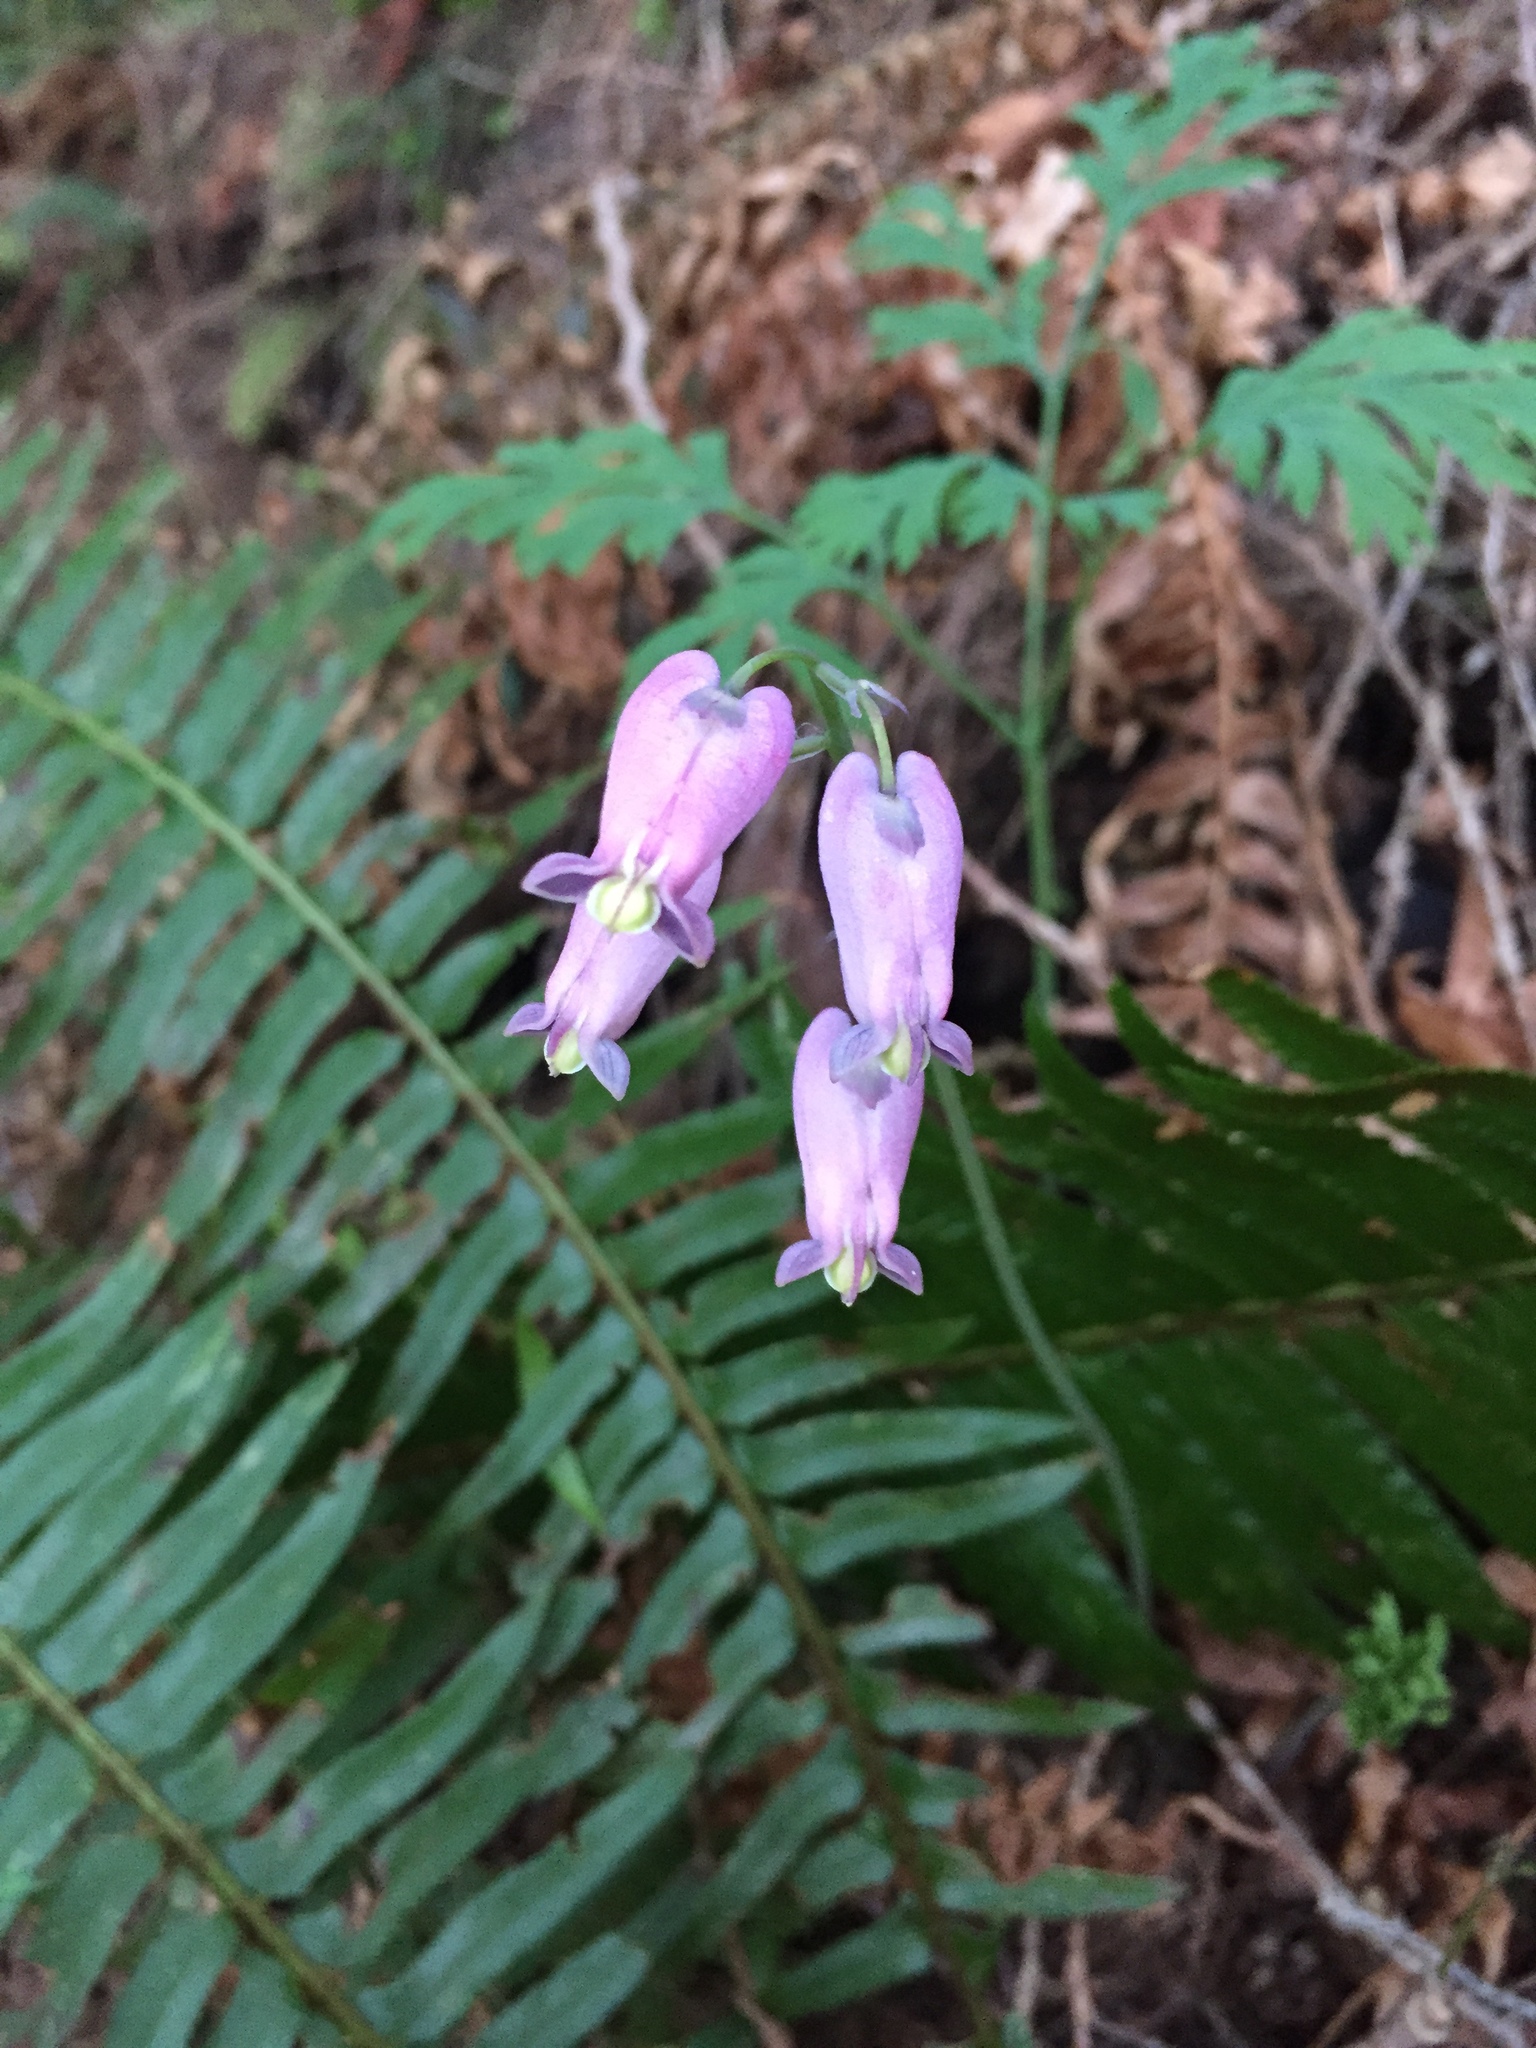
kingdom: Plantae
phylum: Tracheophyta
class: Magnoliopsida
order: Ranunculales
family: Papaveraceae
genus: Dicentra
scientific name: Dicentra formosa
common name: Bleeding-heart
